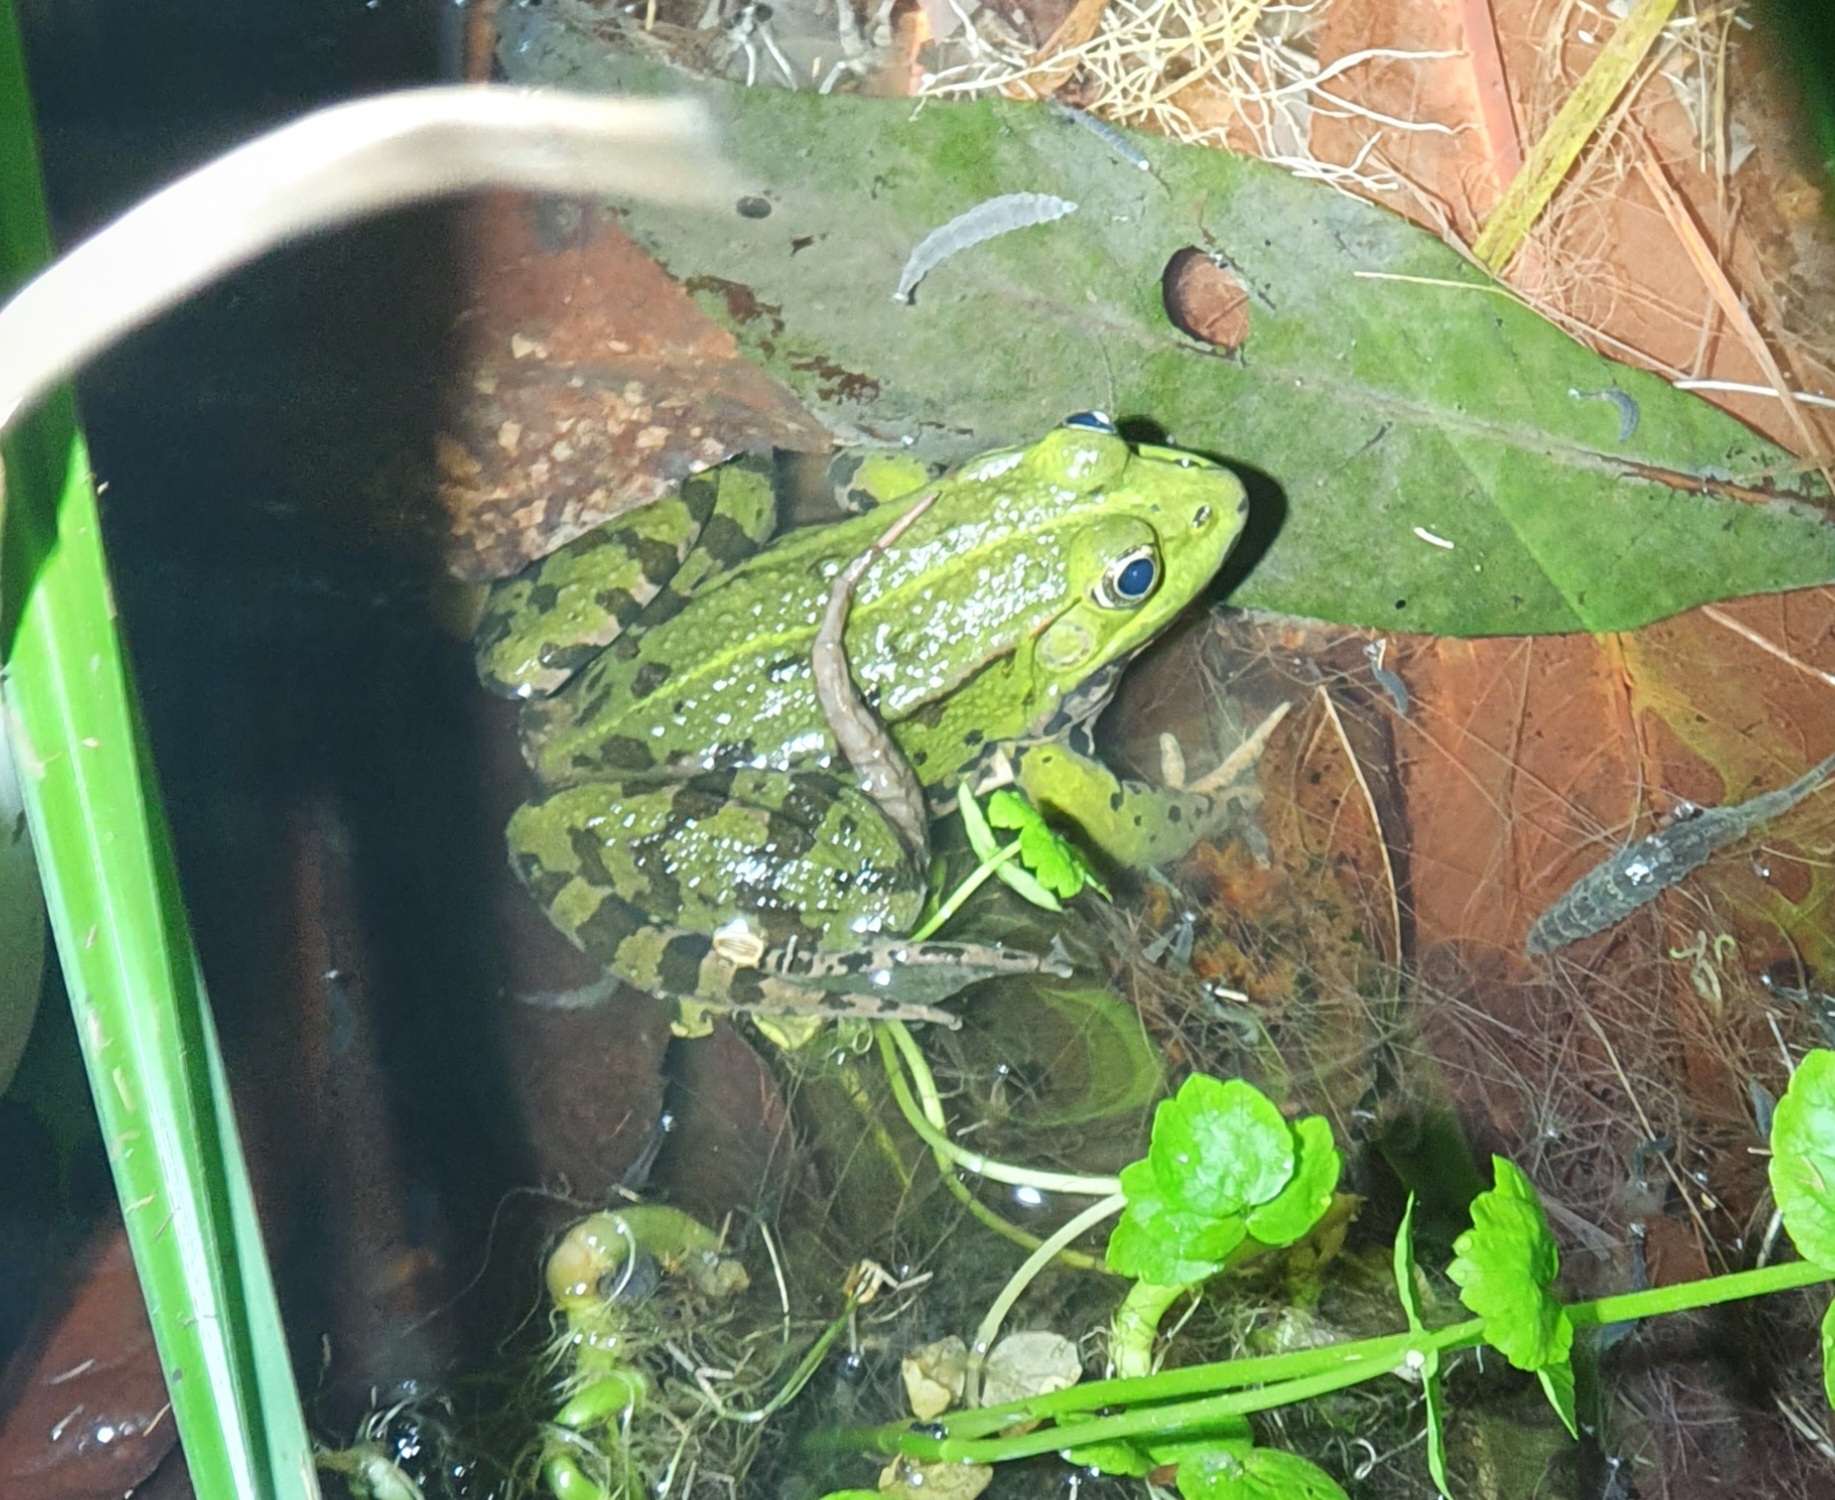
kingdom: Animalia
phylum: Chordata
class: Amphibia
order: Anura
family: Ranidae
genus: Pelophylax
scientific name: Pelophylax
